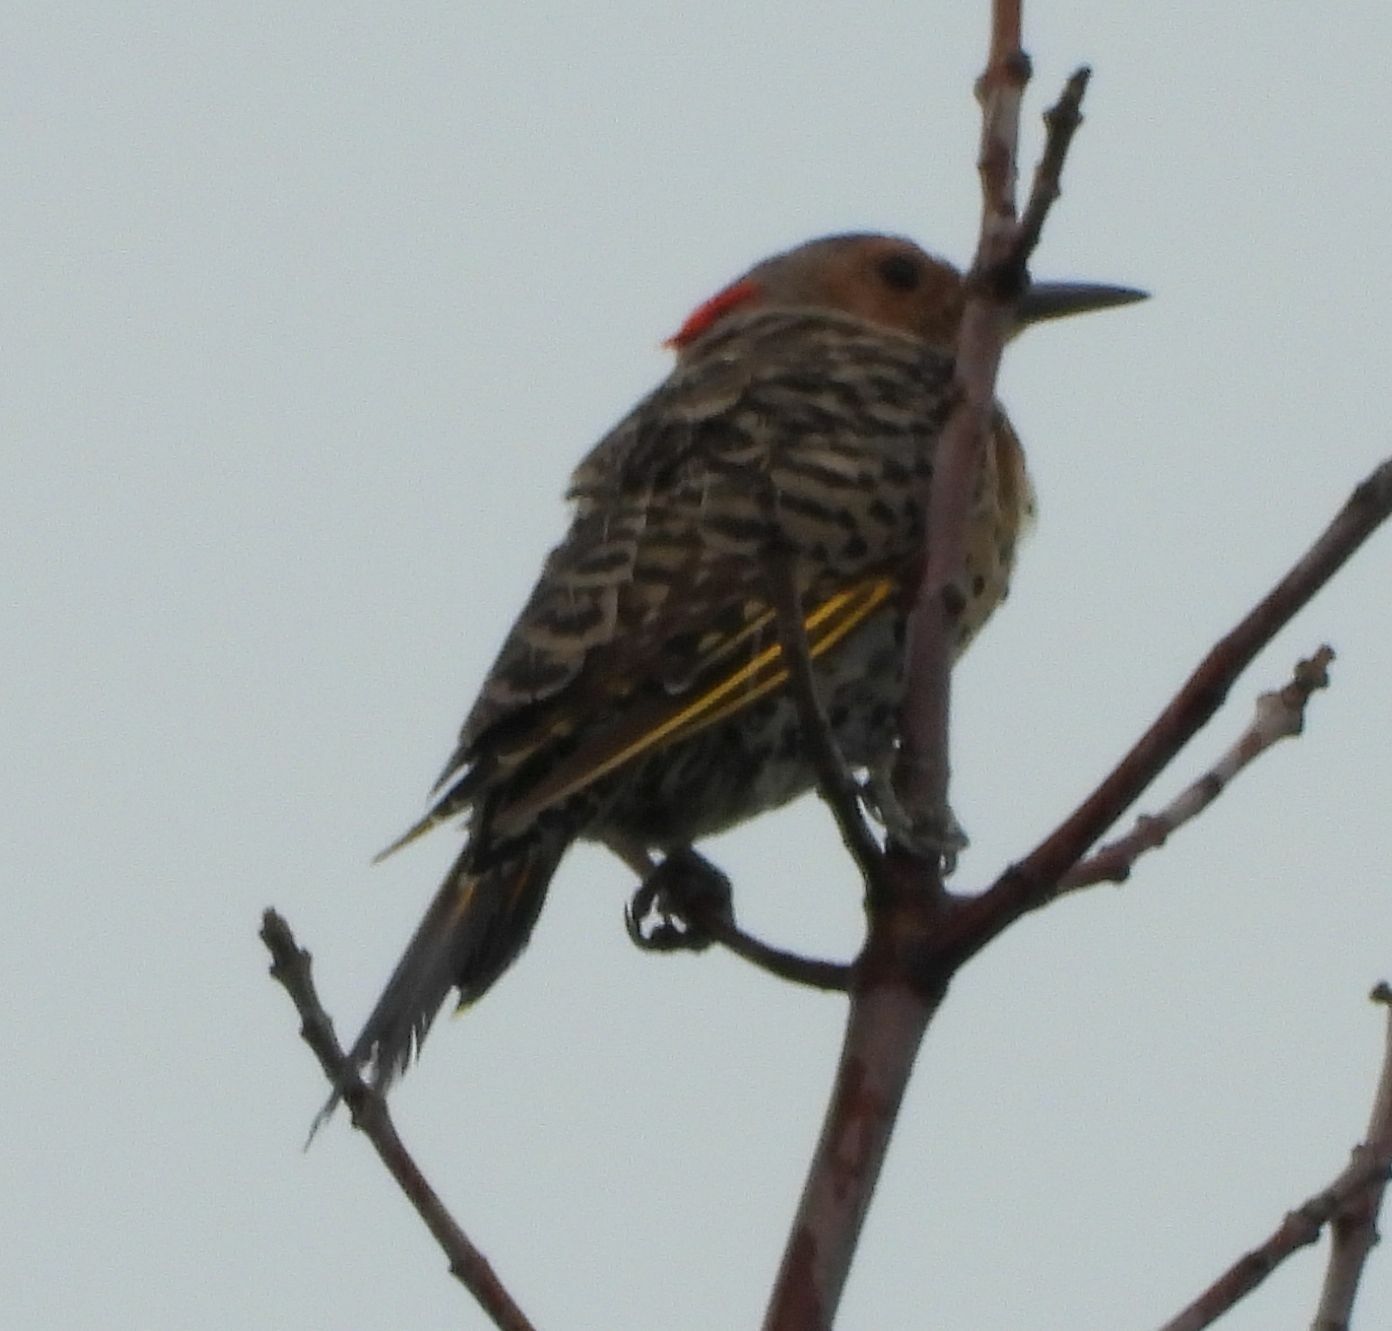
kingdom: Animalia
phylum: Chordata
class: Aves
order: Piciformes
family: Picidae
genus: Colaptes
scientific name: Colaptes auratus
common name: Northern flicker
